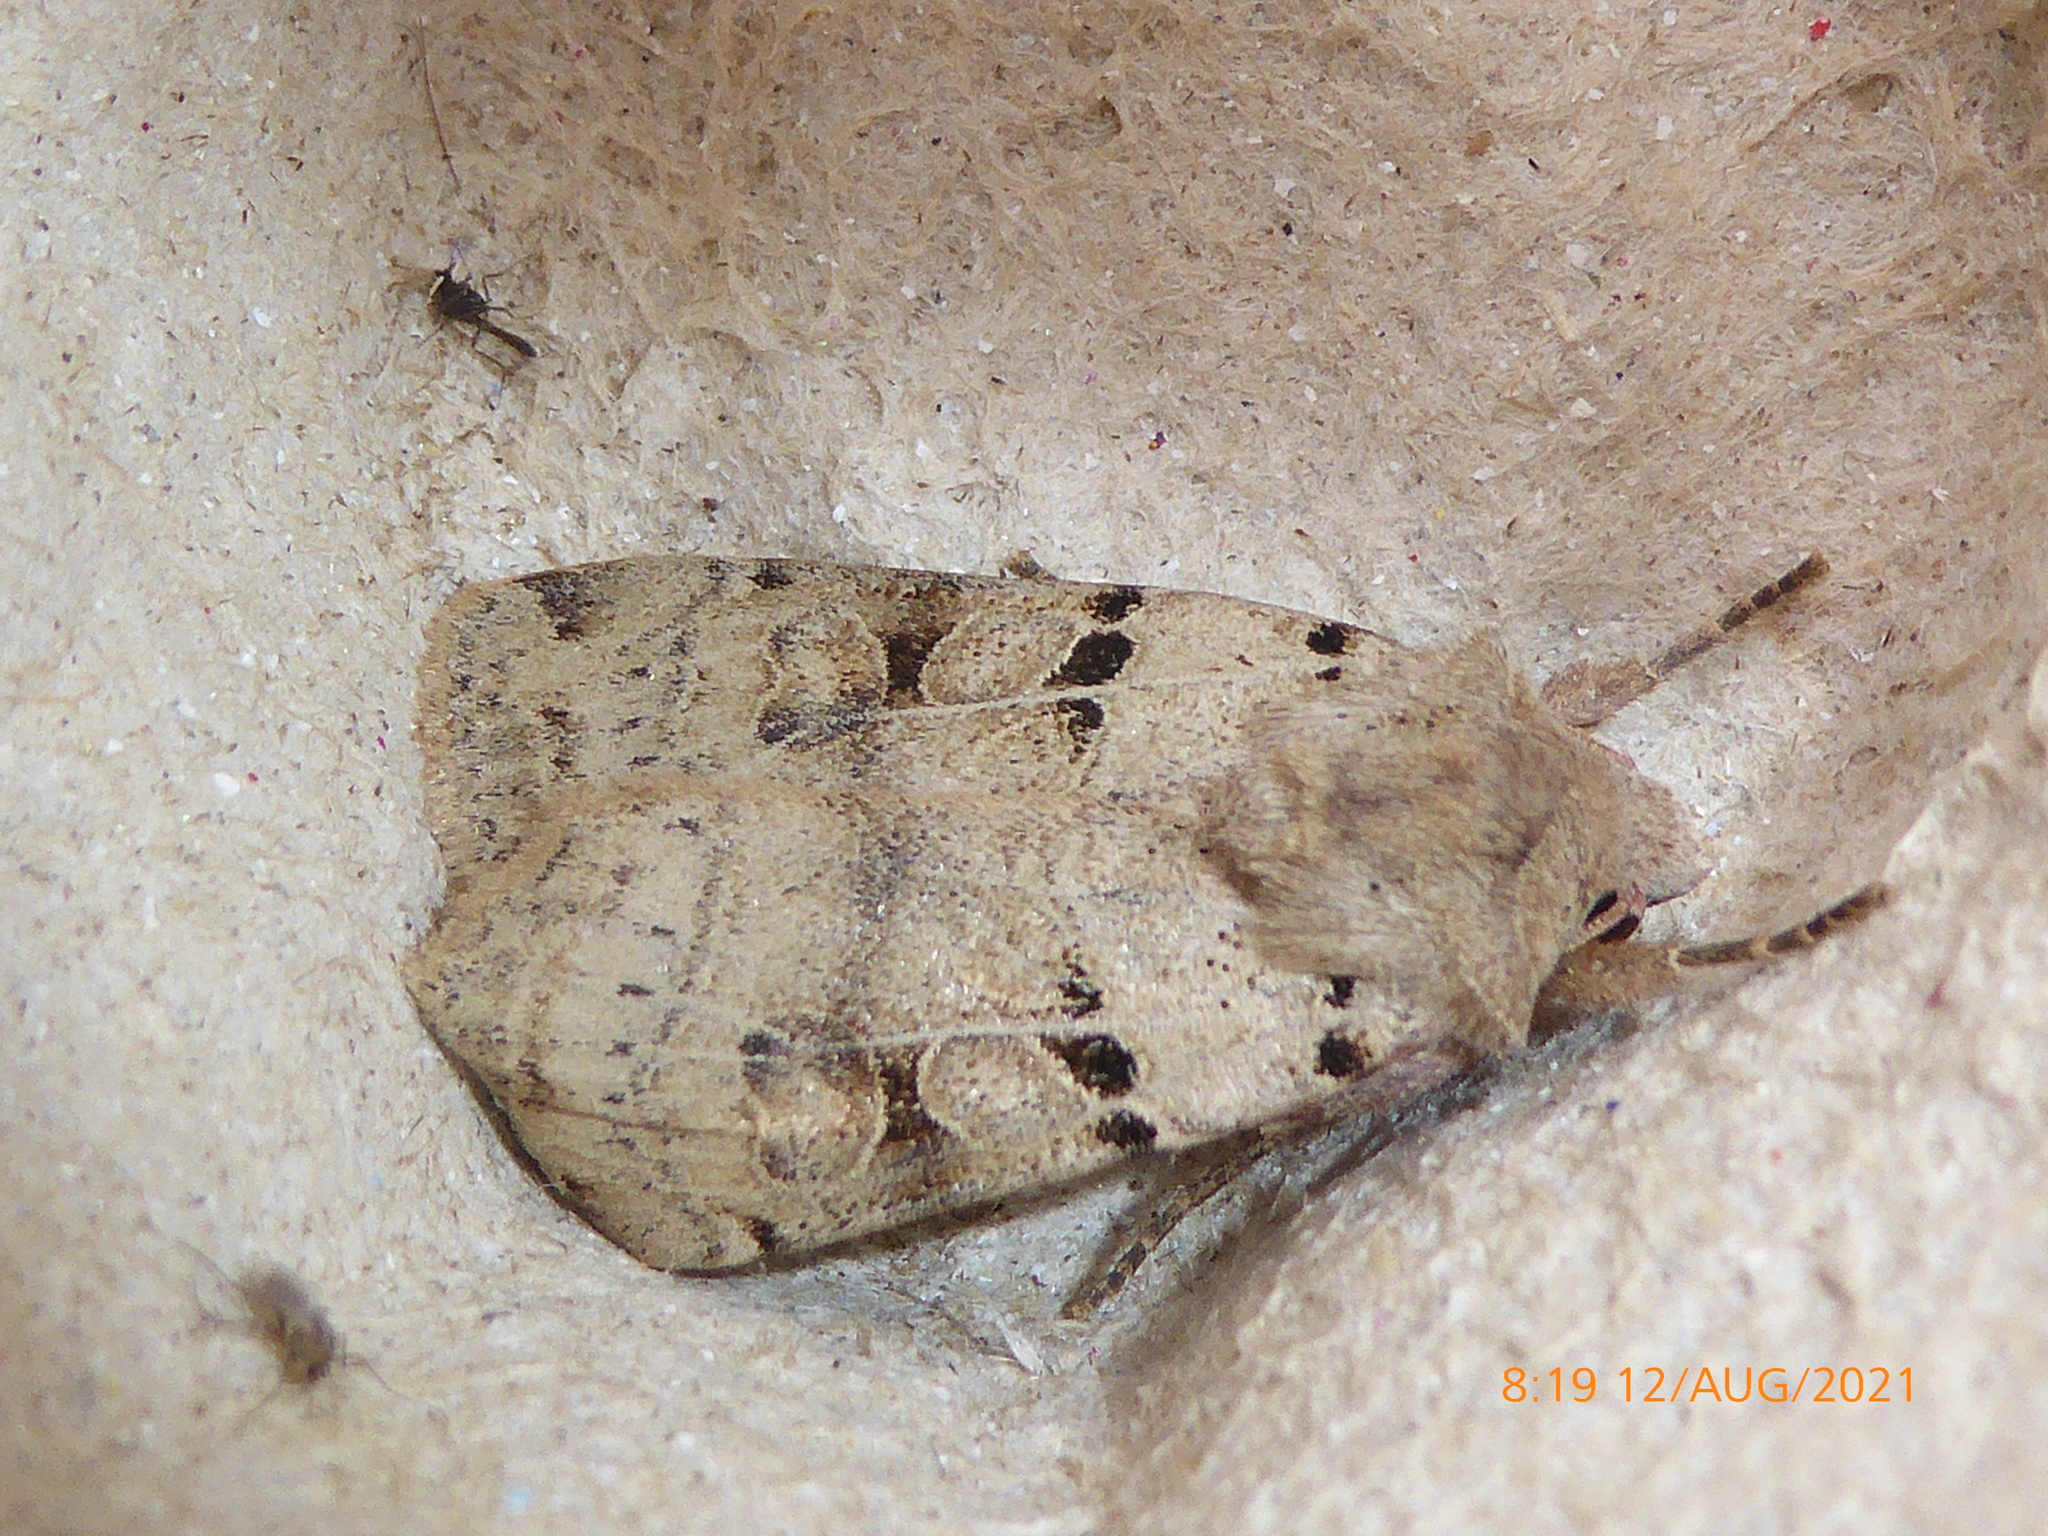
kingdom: Animalia
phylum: Arthropoda
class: Insecta
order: Lepidoptera
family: Noctuidae
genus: Eugnorisma
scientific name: Eugnorisma depuncta
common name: Plain clay
